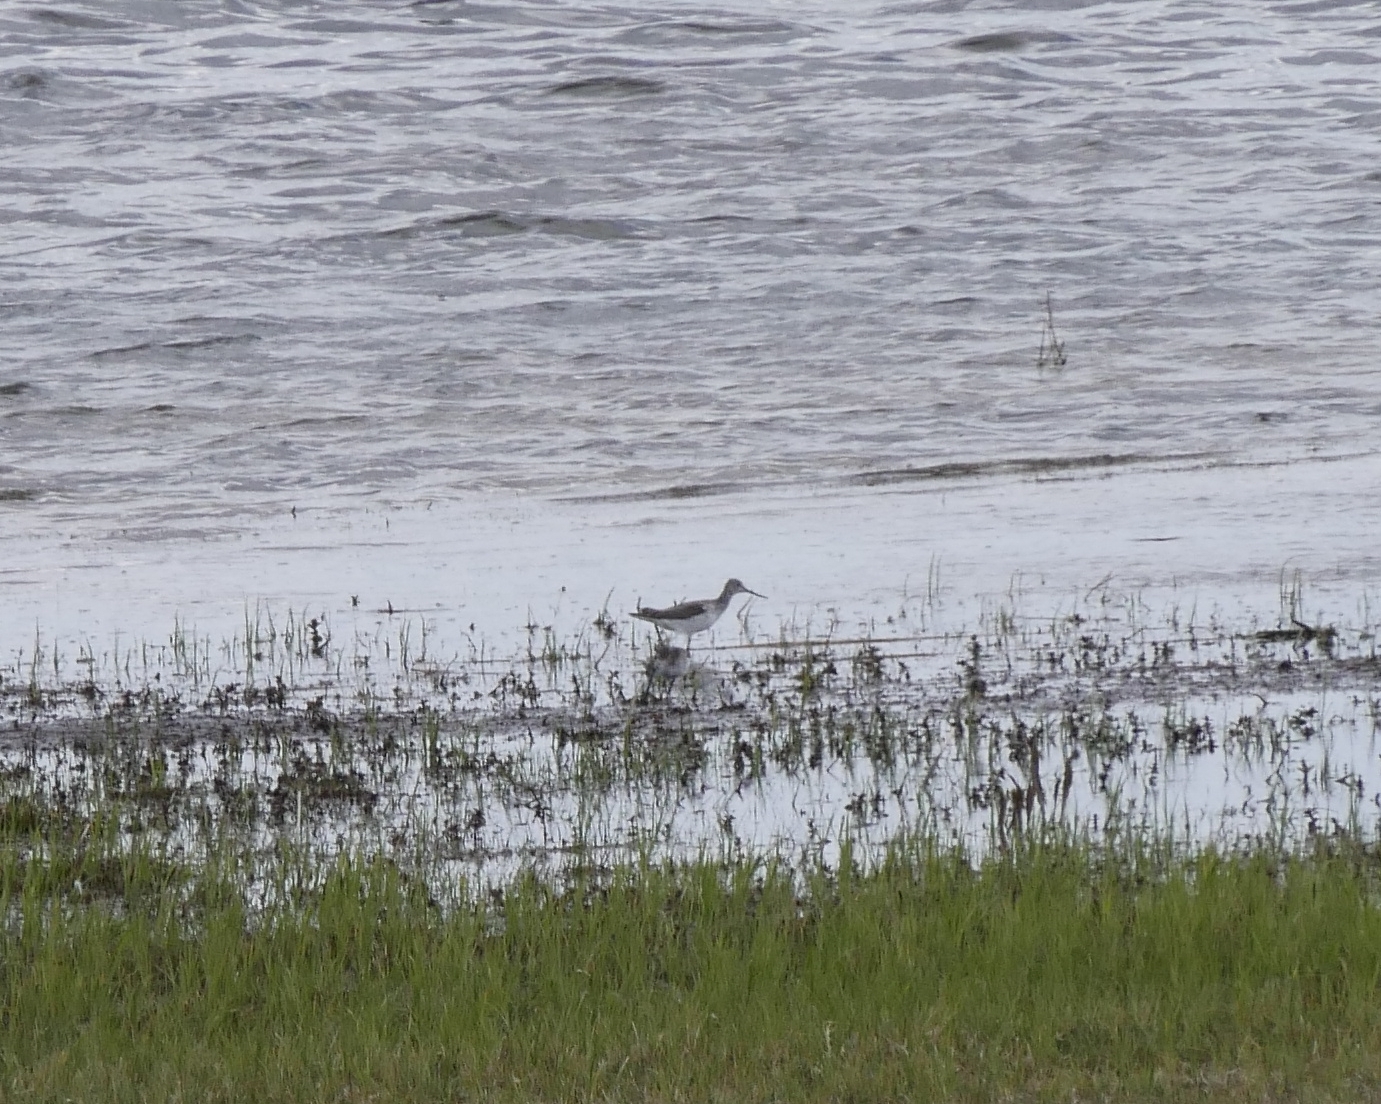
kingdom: Animalia
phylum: Chordata
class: Aves
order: Charadriiformes
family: Scolopacidae
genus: Tringa
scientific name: Tringa nebularia
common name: Common greenshank
